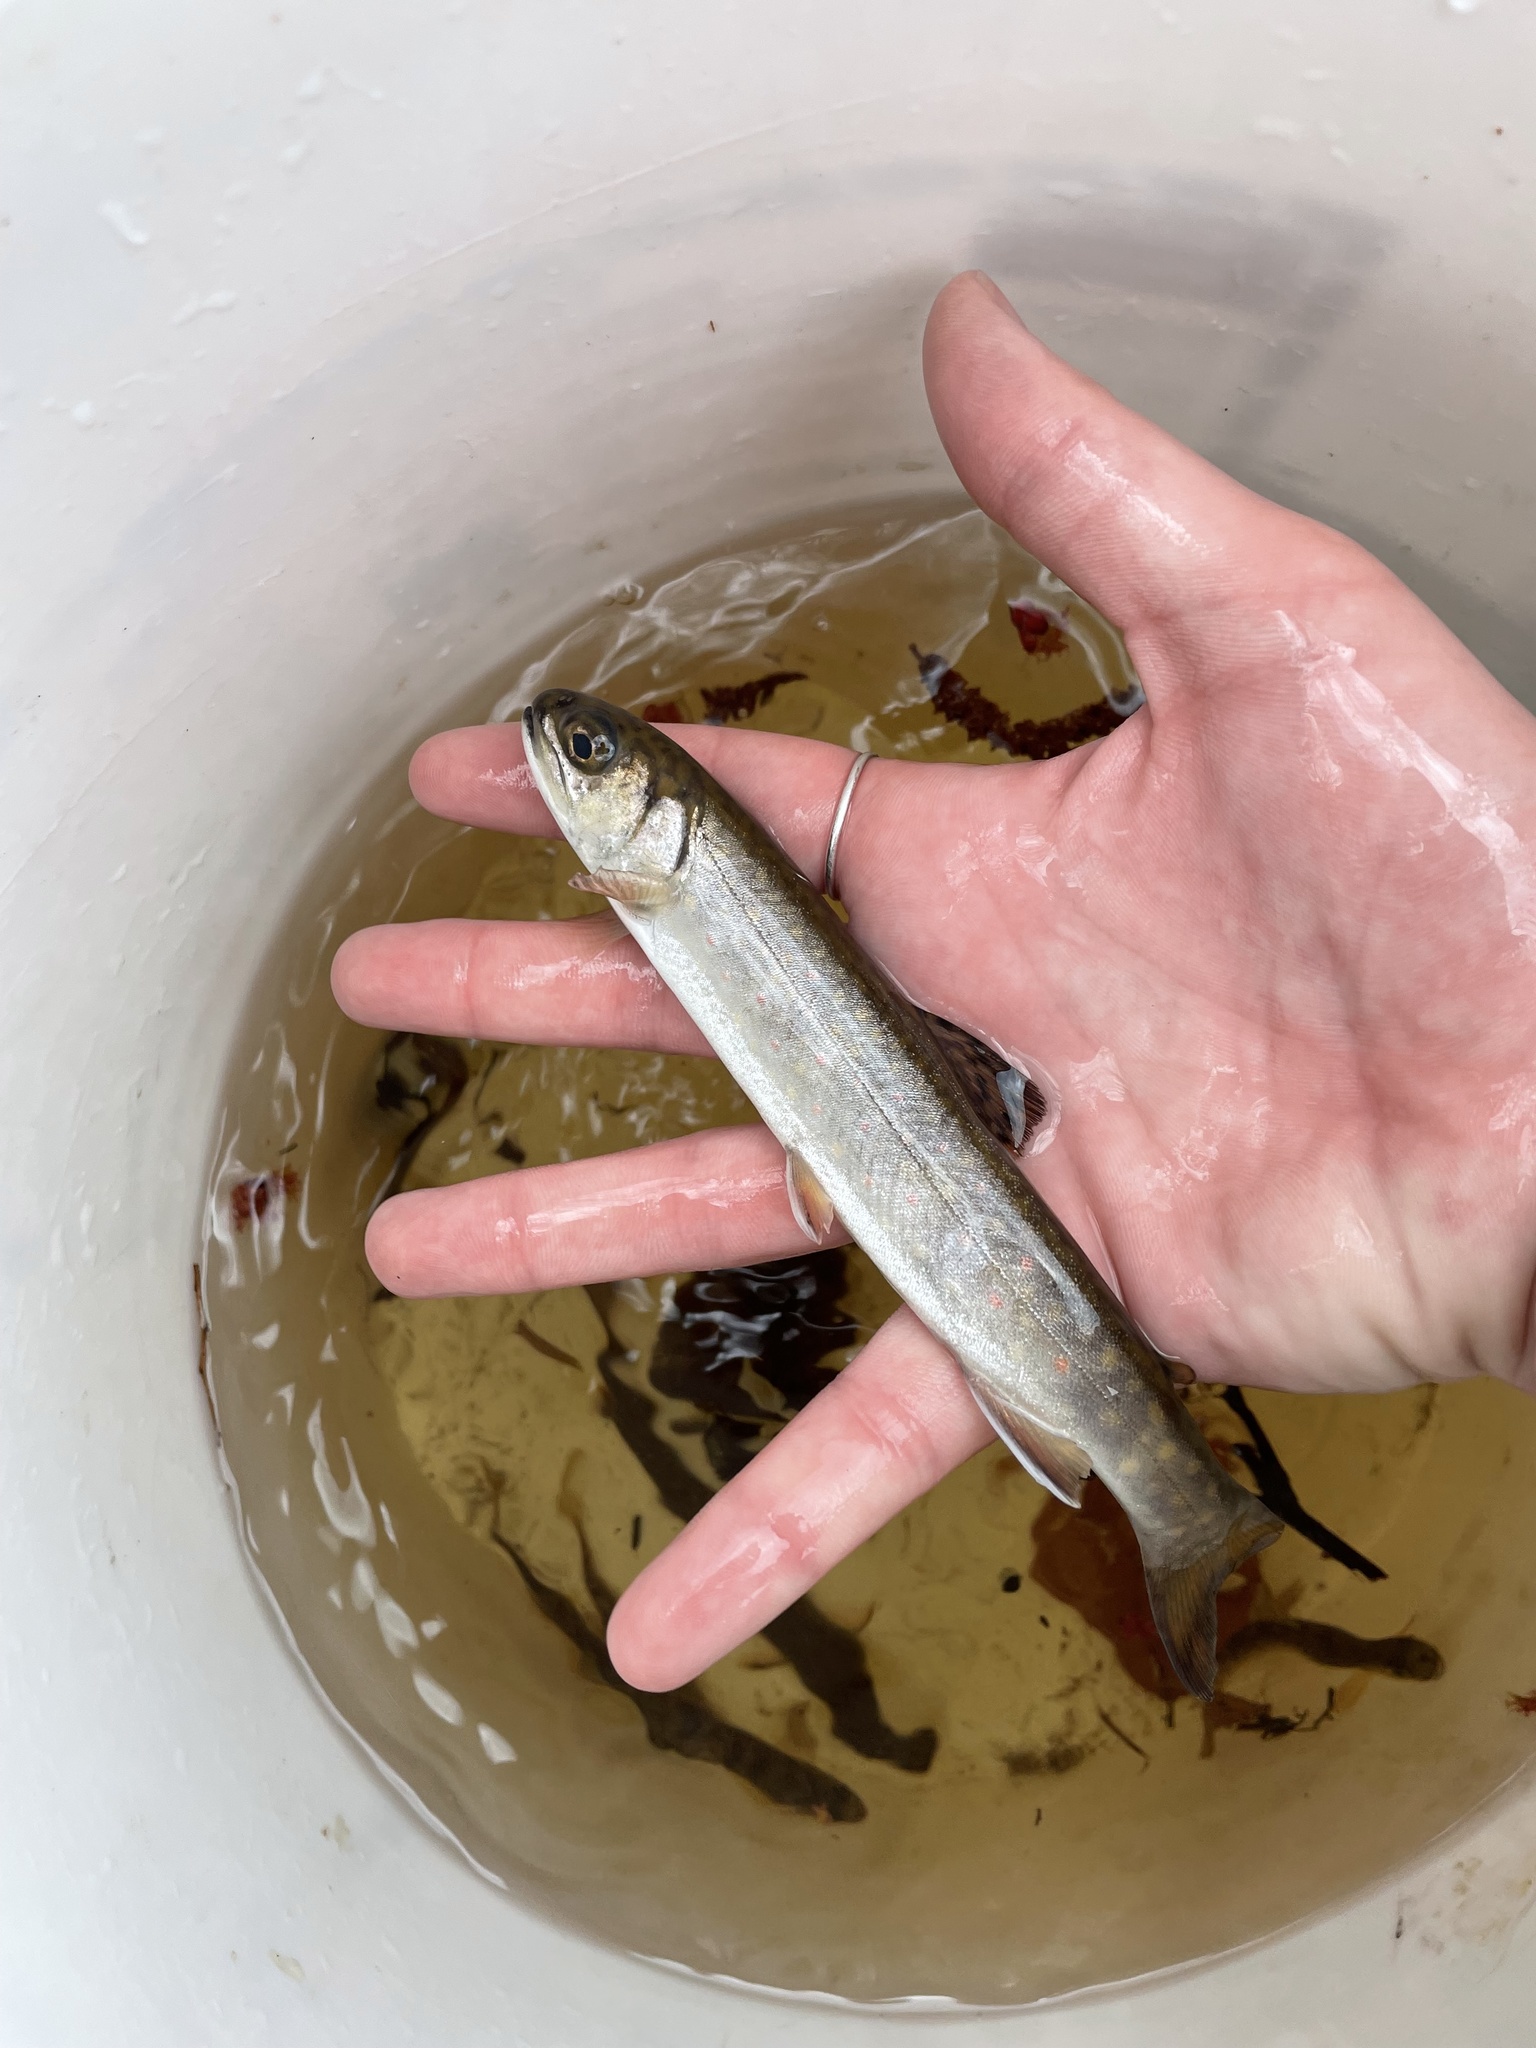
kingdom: Animalia
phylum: Chordata
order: Salmoniformes
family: Salmonidae
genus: Salvelinus
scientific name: Salvelinus fontinalis
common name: Brook trout
